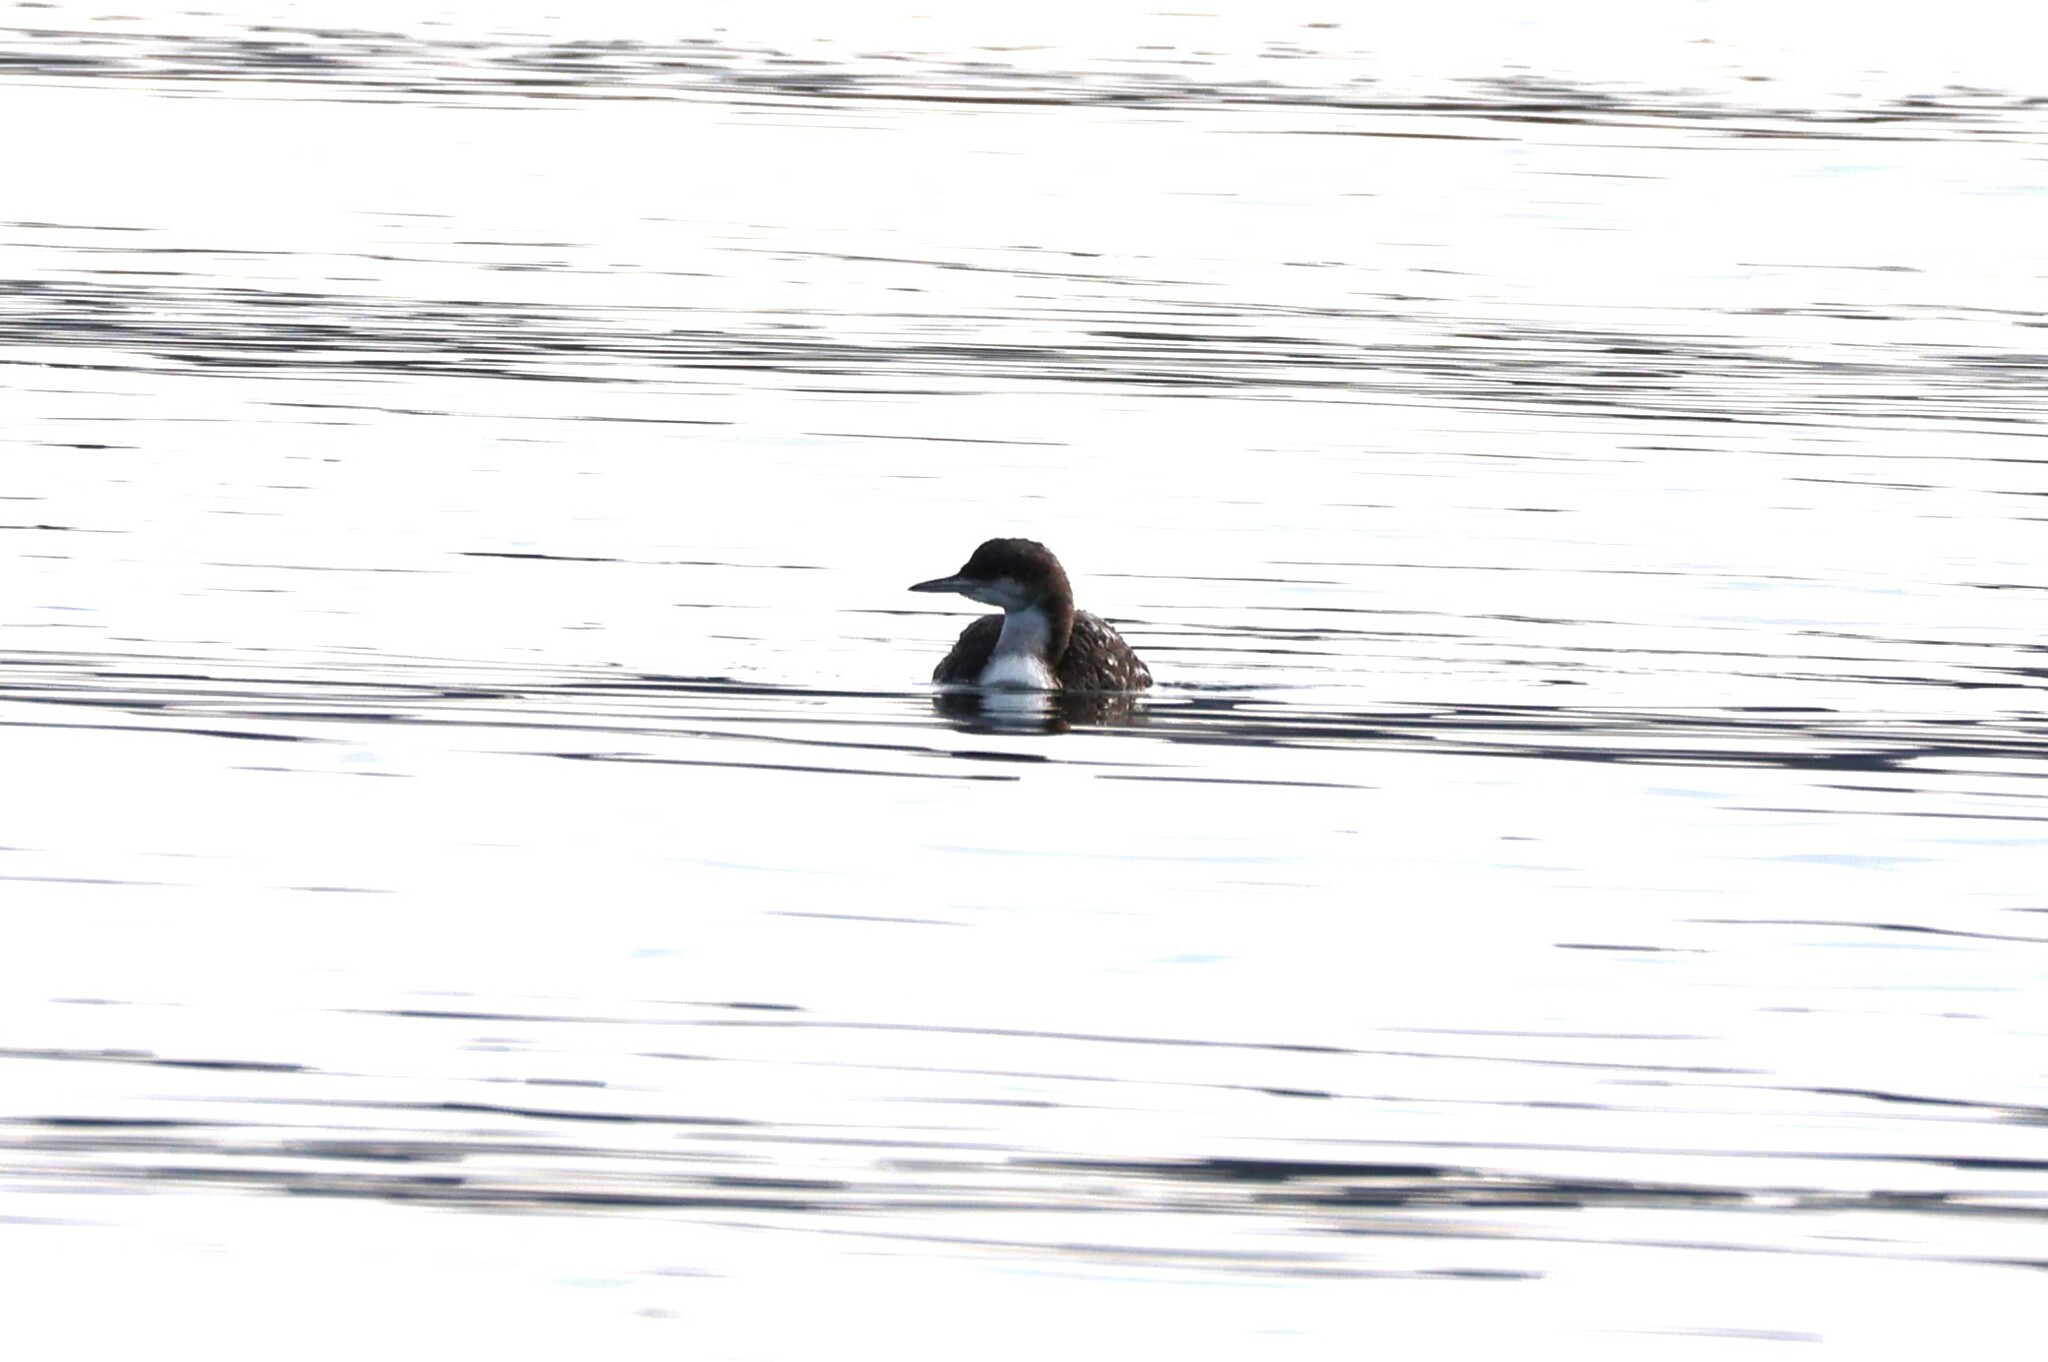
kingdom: Animalia
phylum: Chordata
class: Aves
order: Gaviiformes
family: Gaviidae
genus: Gavia
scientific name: Gavia pacifica
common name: Pacific loon
